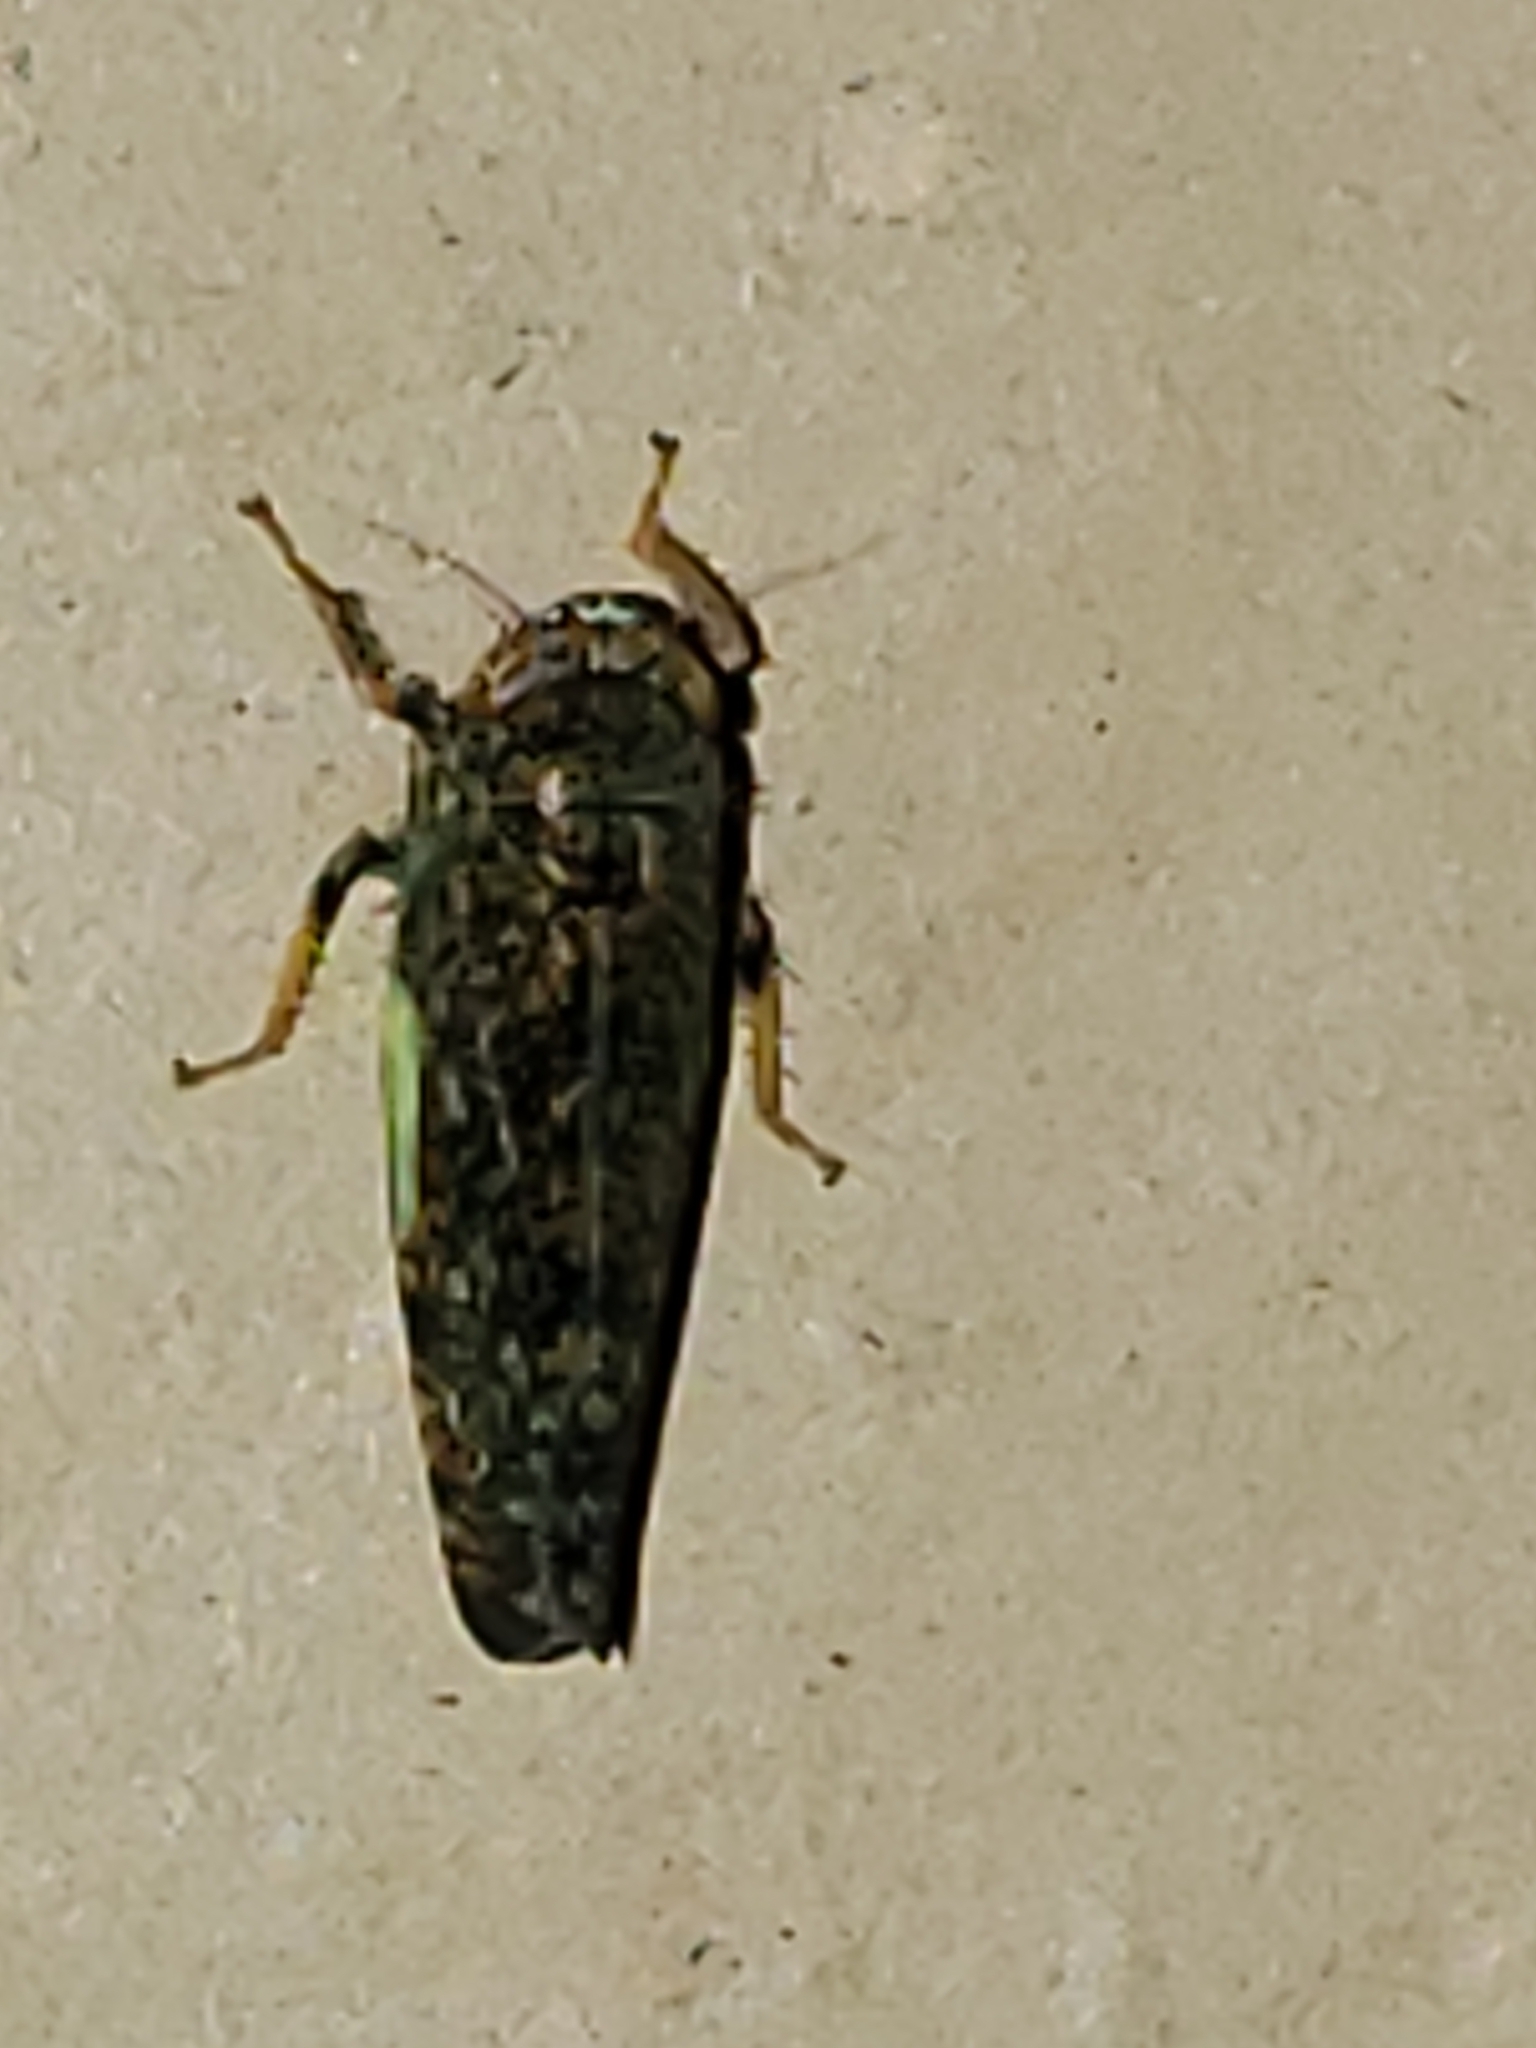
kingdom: Animalia
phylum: Arthropoda
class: Insecta
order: Hemiptera
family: Cicadellidae
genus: Orientus
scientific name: Orientus ishidae
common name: Japanese leafhopper
